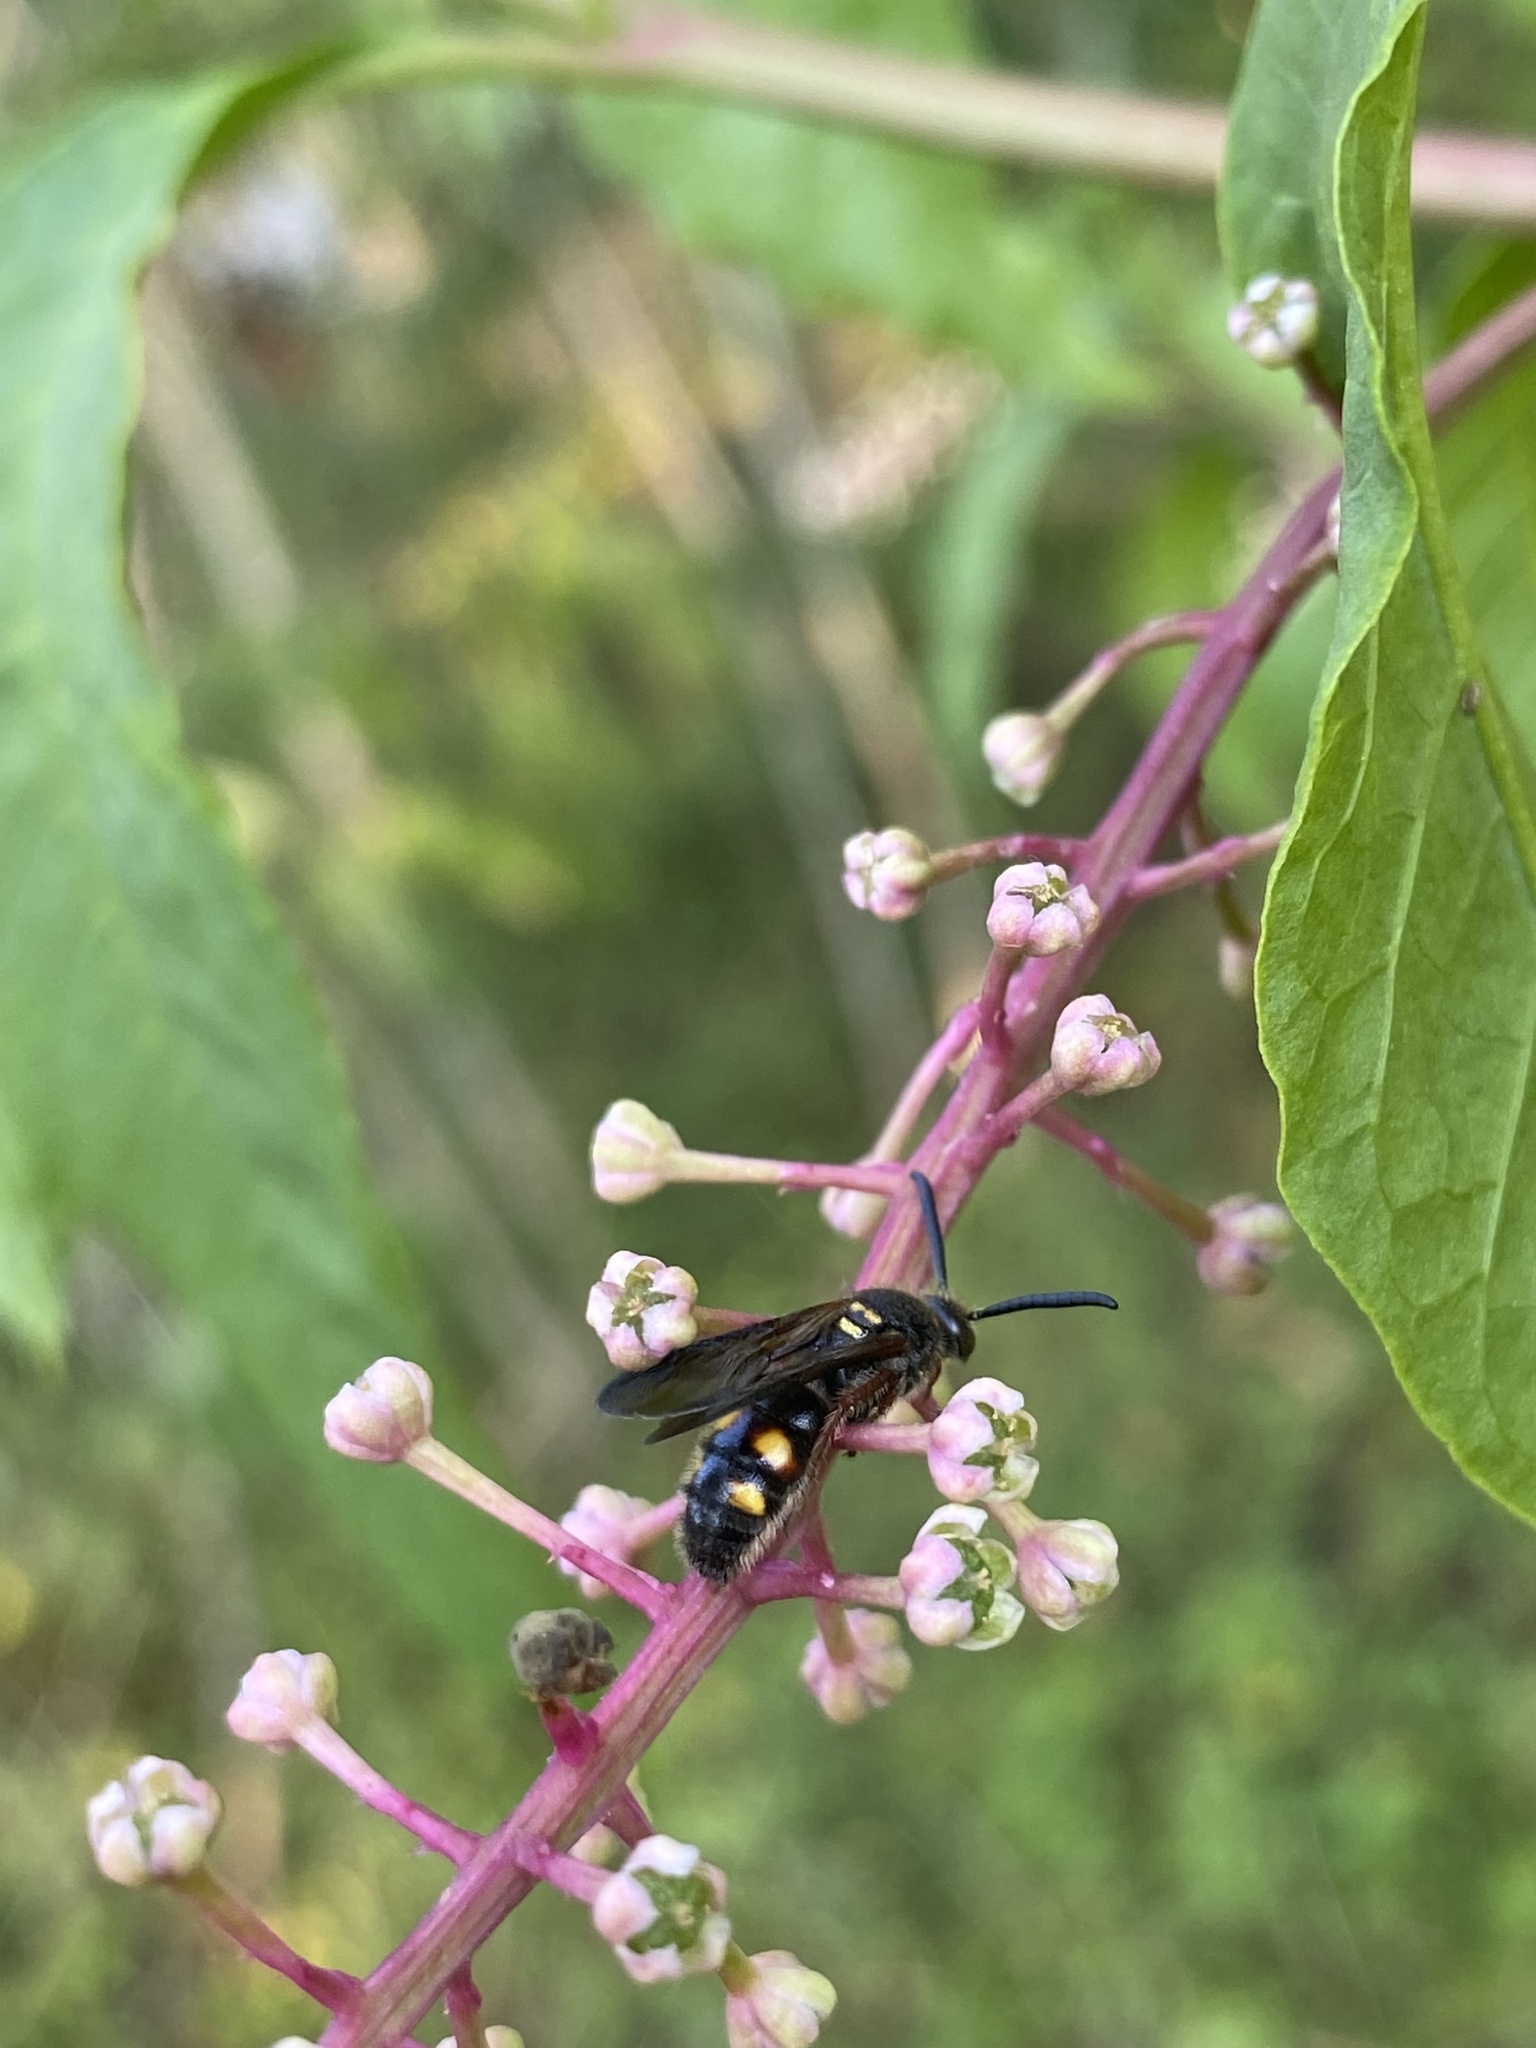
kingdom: Animalia
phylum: Arthropoda
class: Insecta
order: Hymenoptera
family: Scoliidae
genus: Scolia
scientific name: Scolia nobilitata
